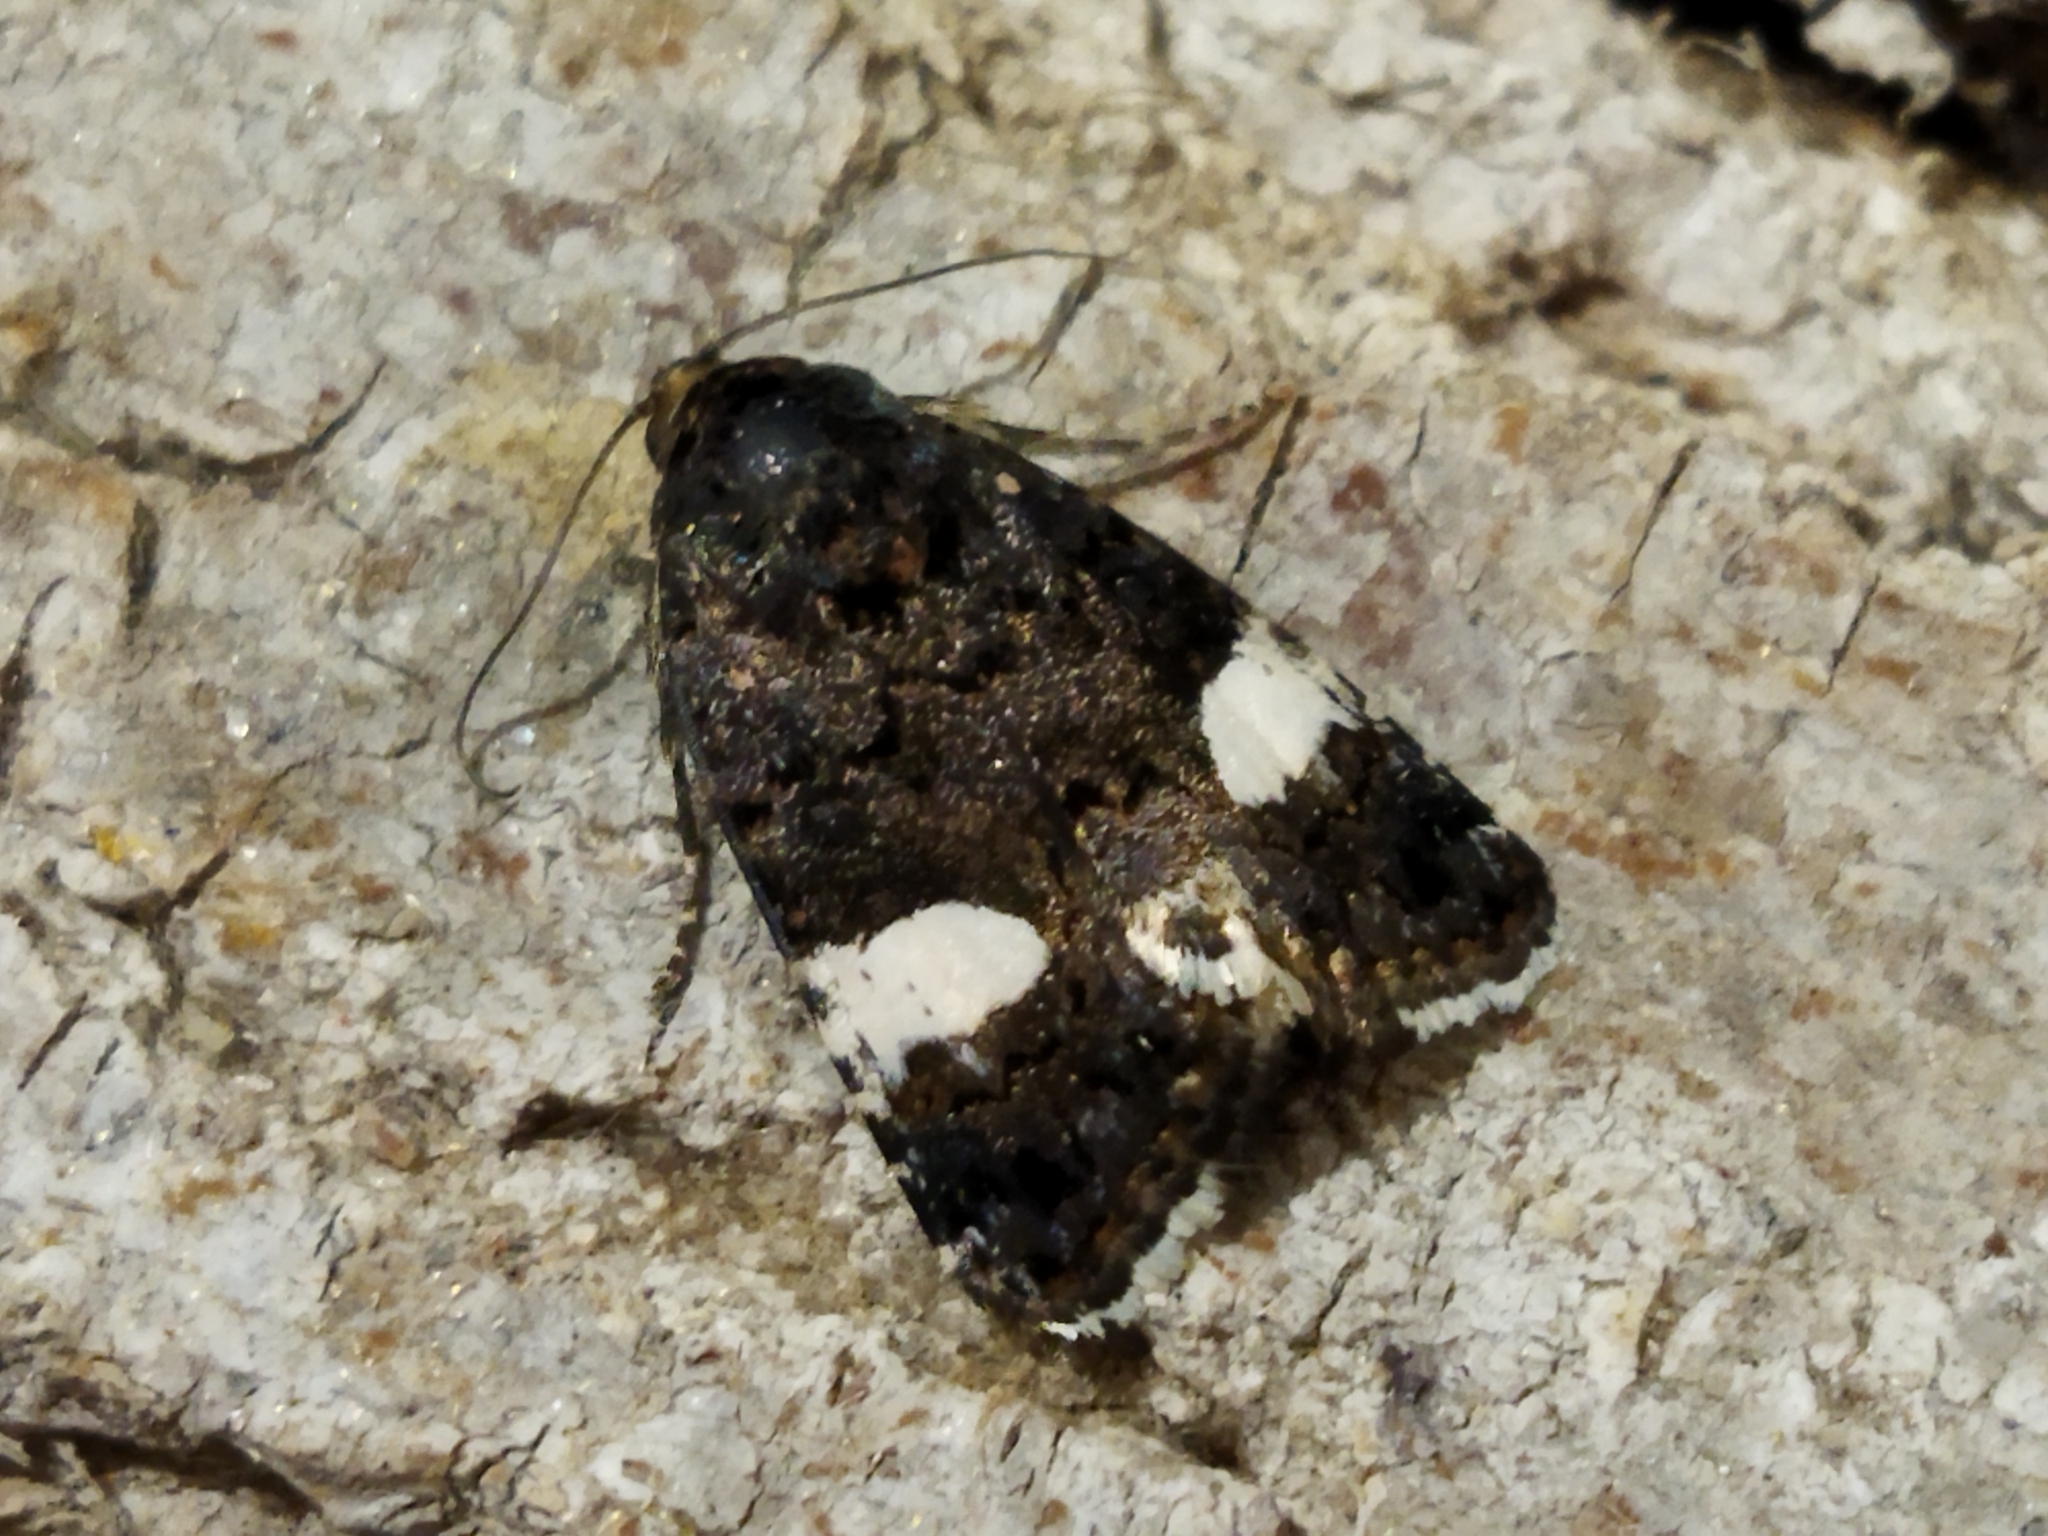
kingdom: Animalia
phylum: Arthropoda
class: Insecta
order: Lepidoptera
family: Erebidae
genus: Tyta
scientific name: Tyta luctuosa
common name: Four-spotted
